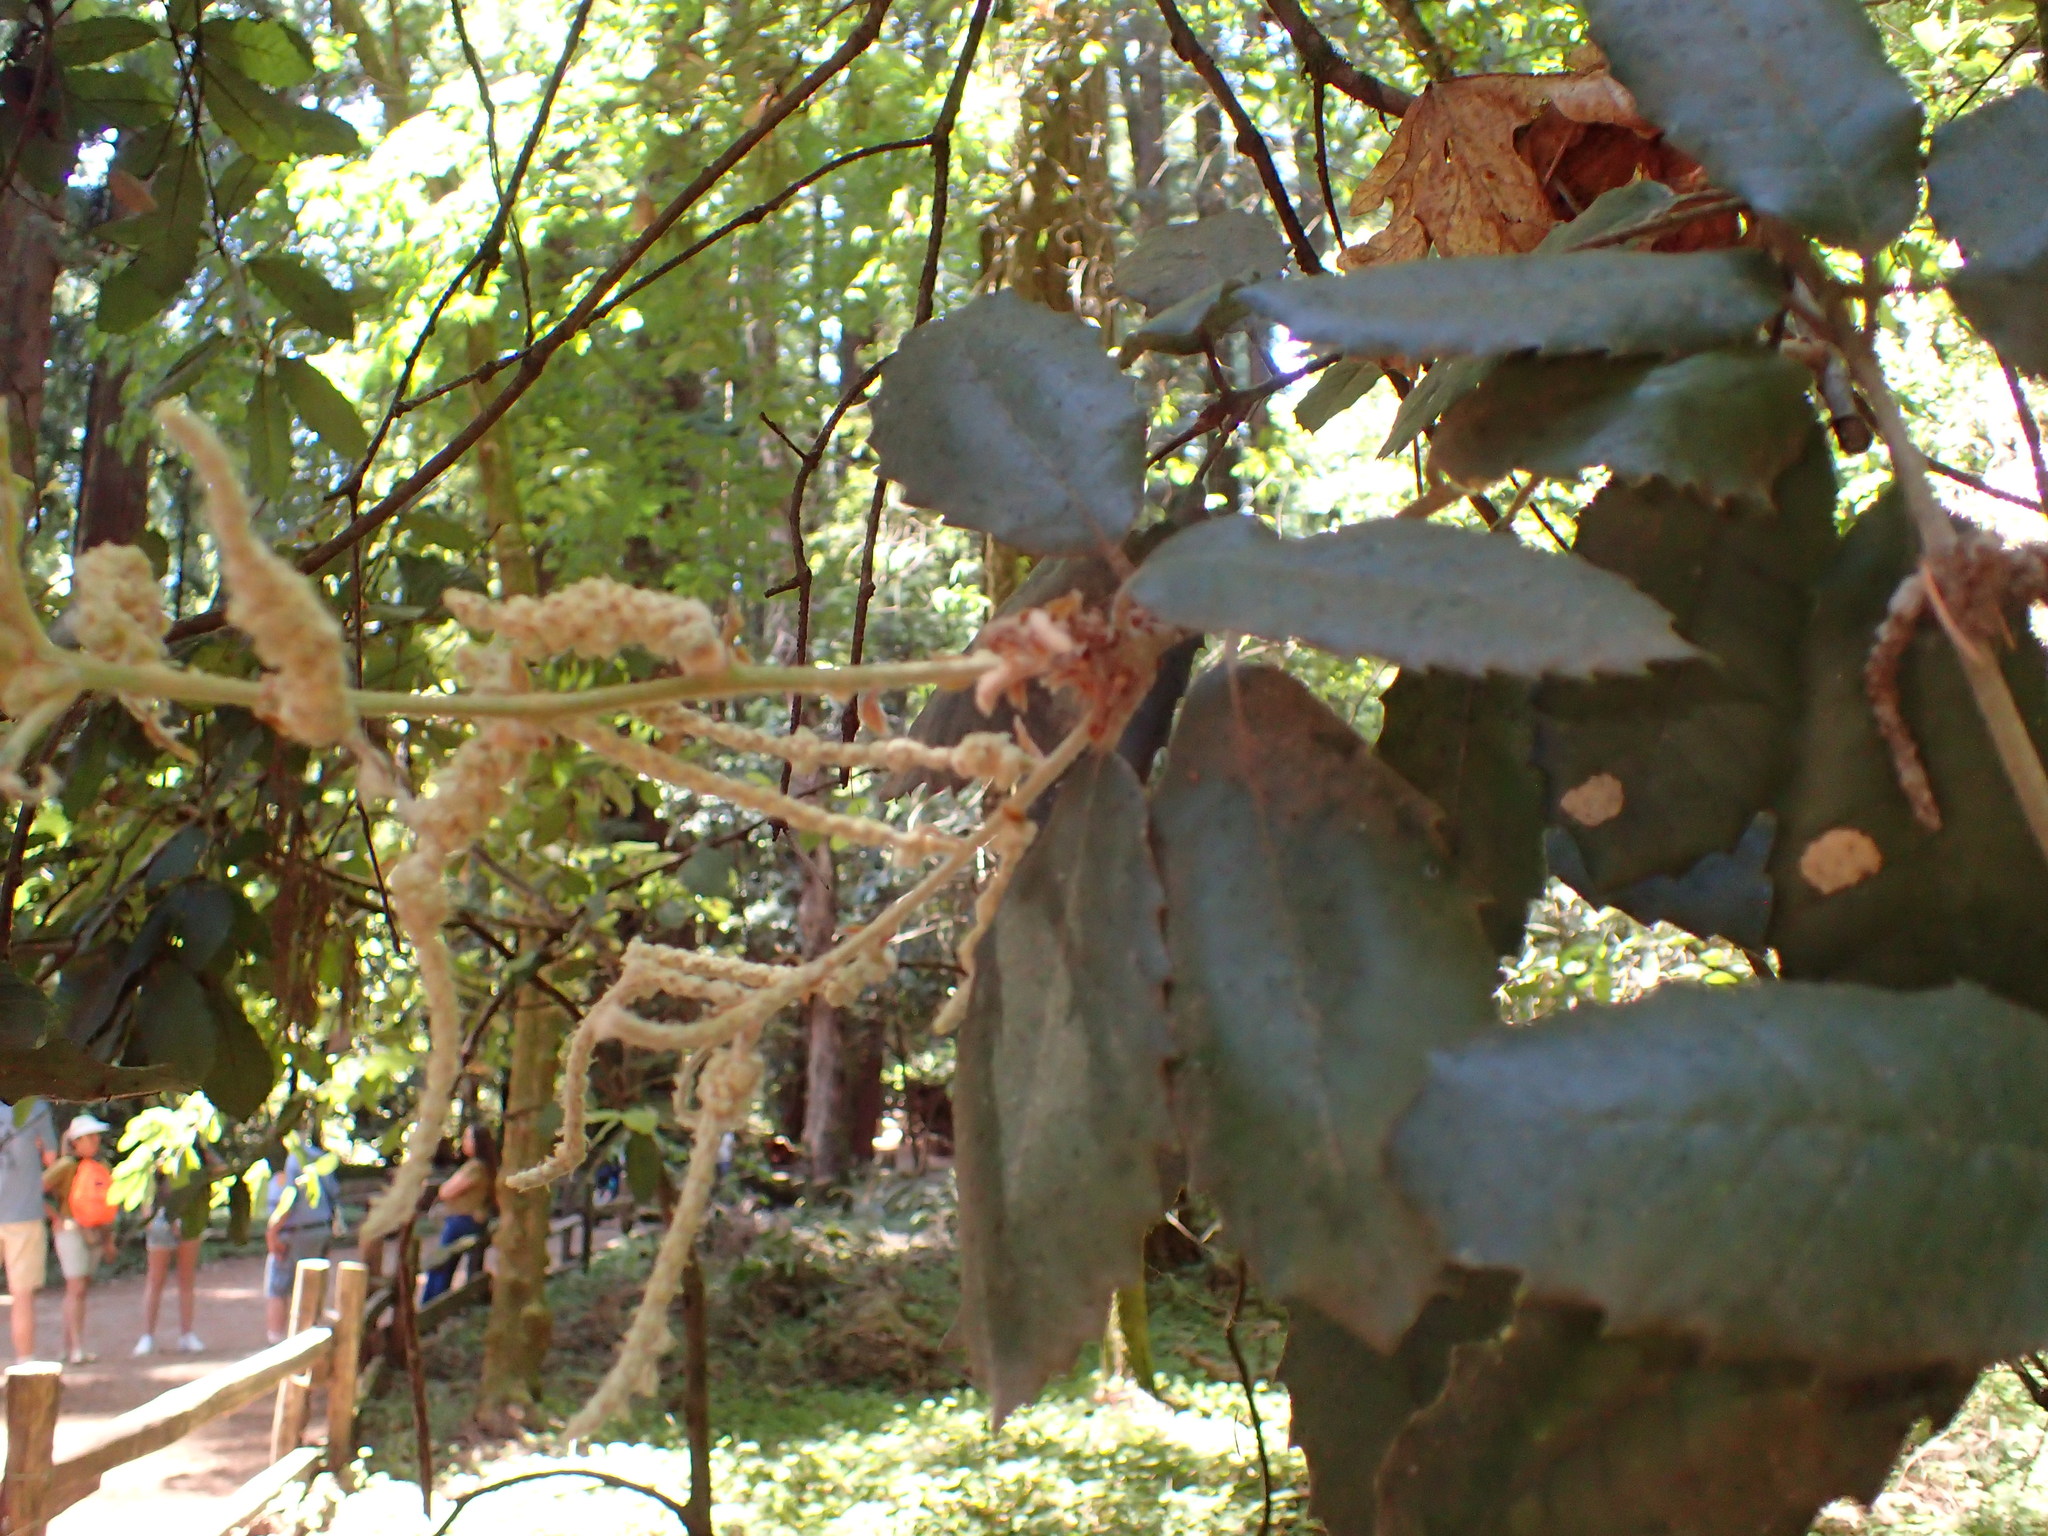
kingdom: Plantae
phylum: Tracheophyta
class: Magnoliopsida
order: Fagales
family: Fagaceae
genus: Notholithocarpus
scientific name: Notholithocarpus densiflorus
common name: Tan bark oak
